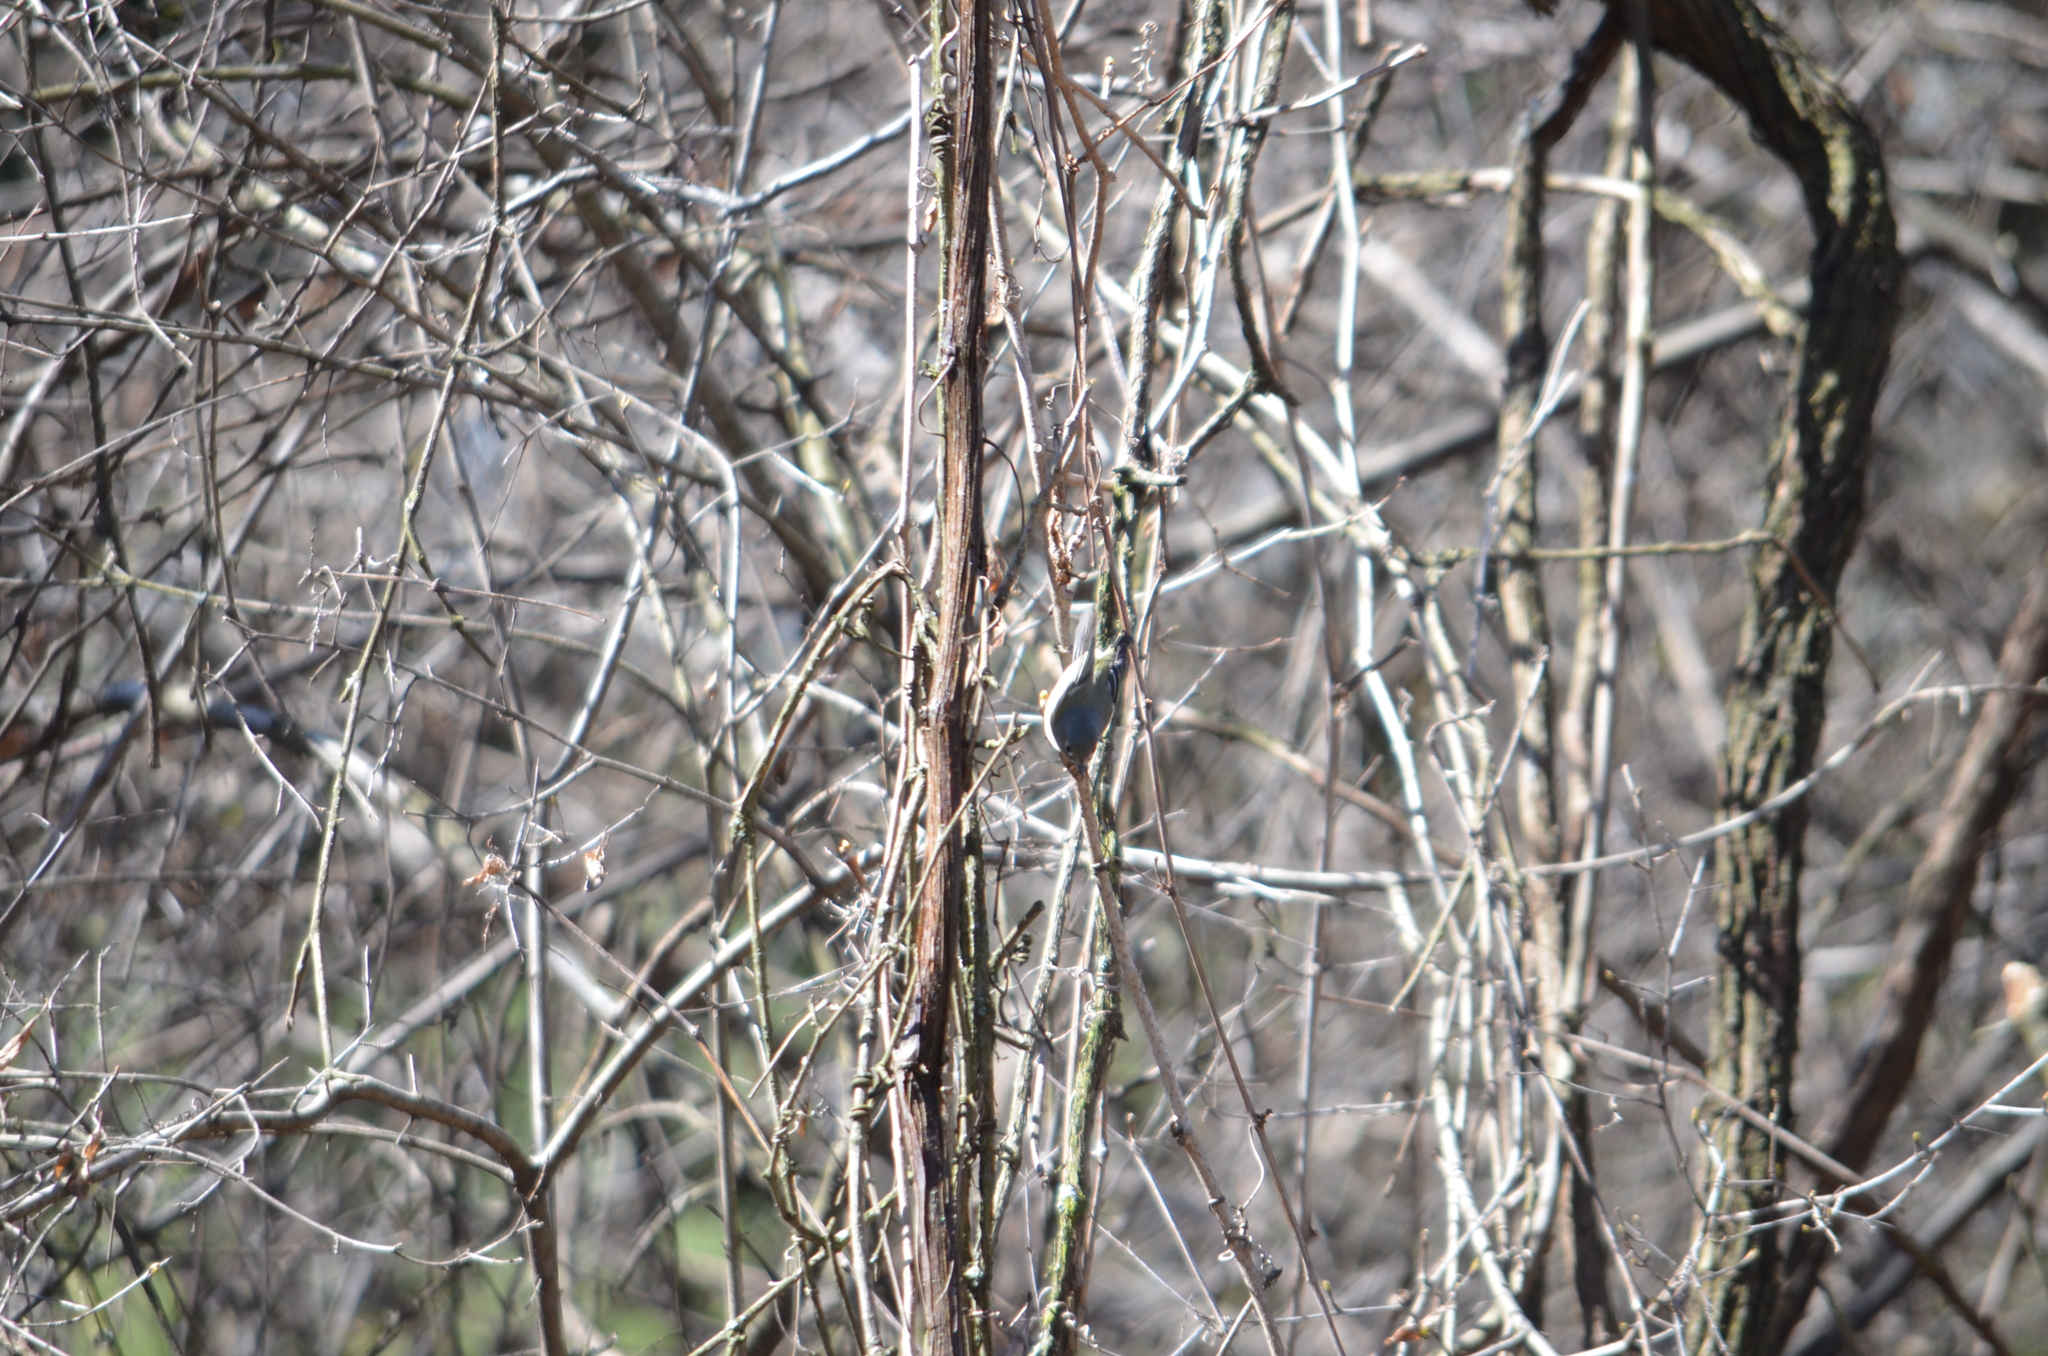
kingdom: Animalia
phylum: Chordata
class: Aves
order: Passeriformes
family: Regulidae
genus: Regulus
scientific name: Regulus calendula
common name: Ruby-crowned kinglet
